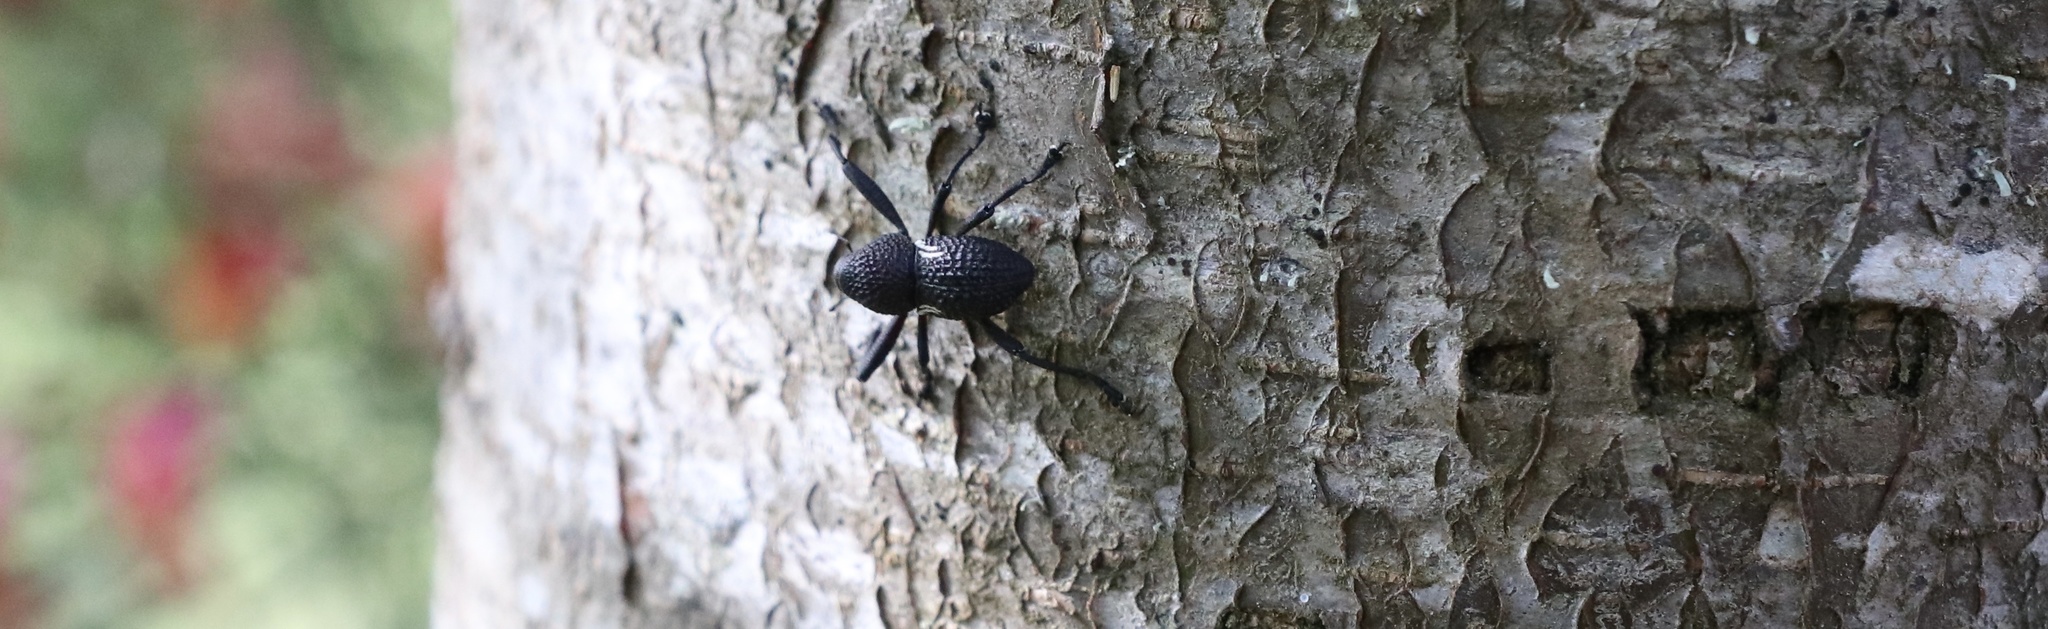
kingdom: Animalia
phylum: Arthropoda
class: Insecta
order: Coleoptera
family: Curculionidae
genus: Rhyephenes
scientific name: Rhyephenes humeralis
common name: Araè±ita chilena del pino
